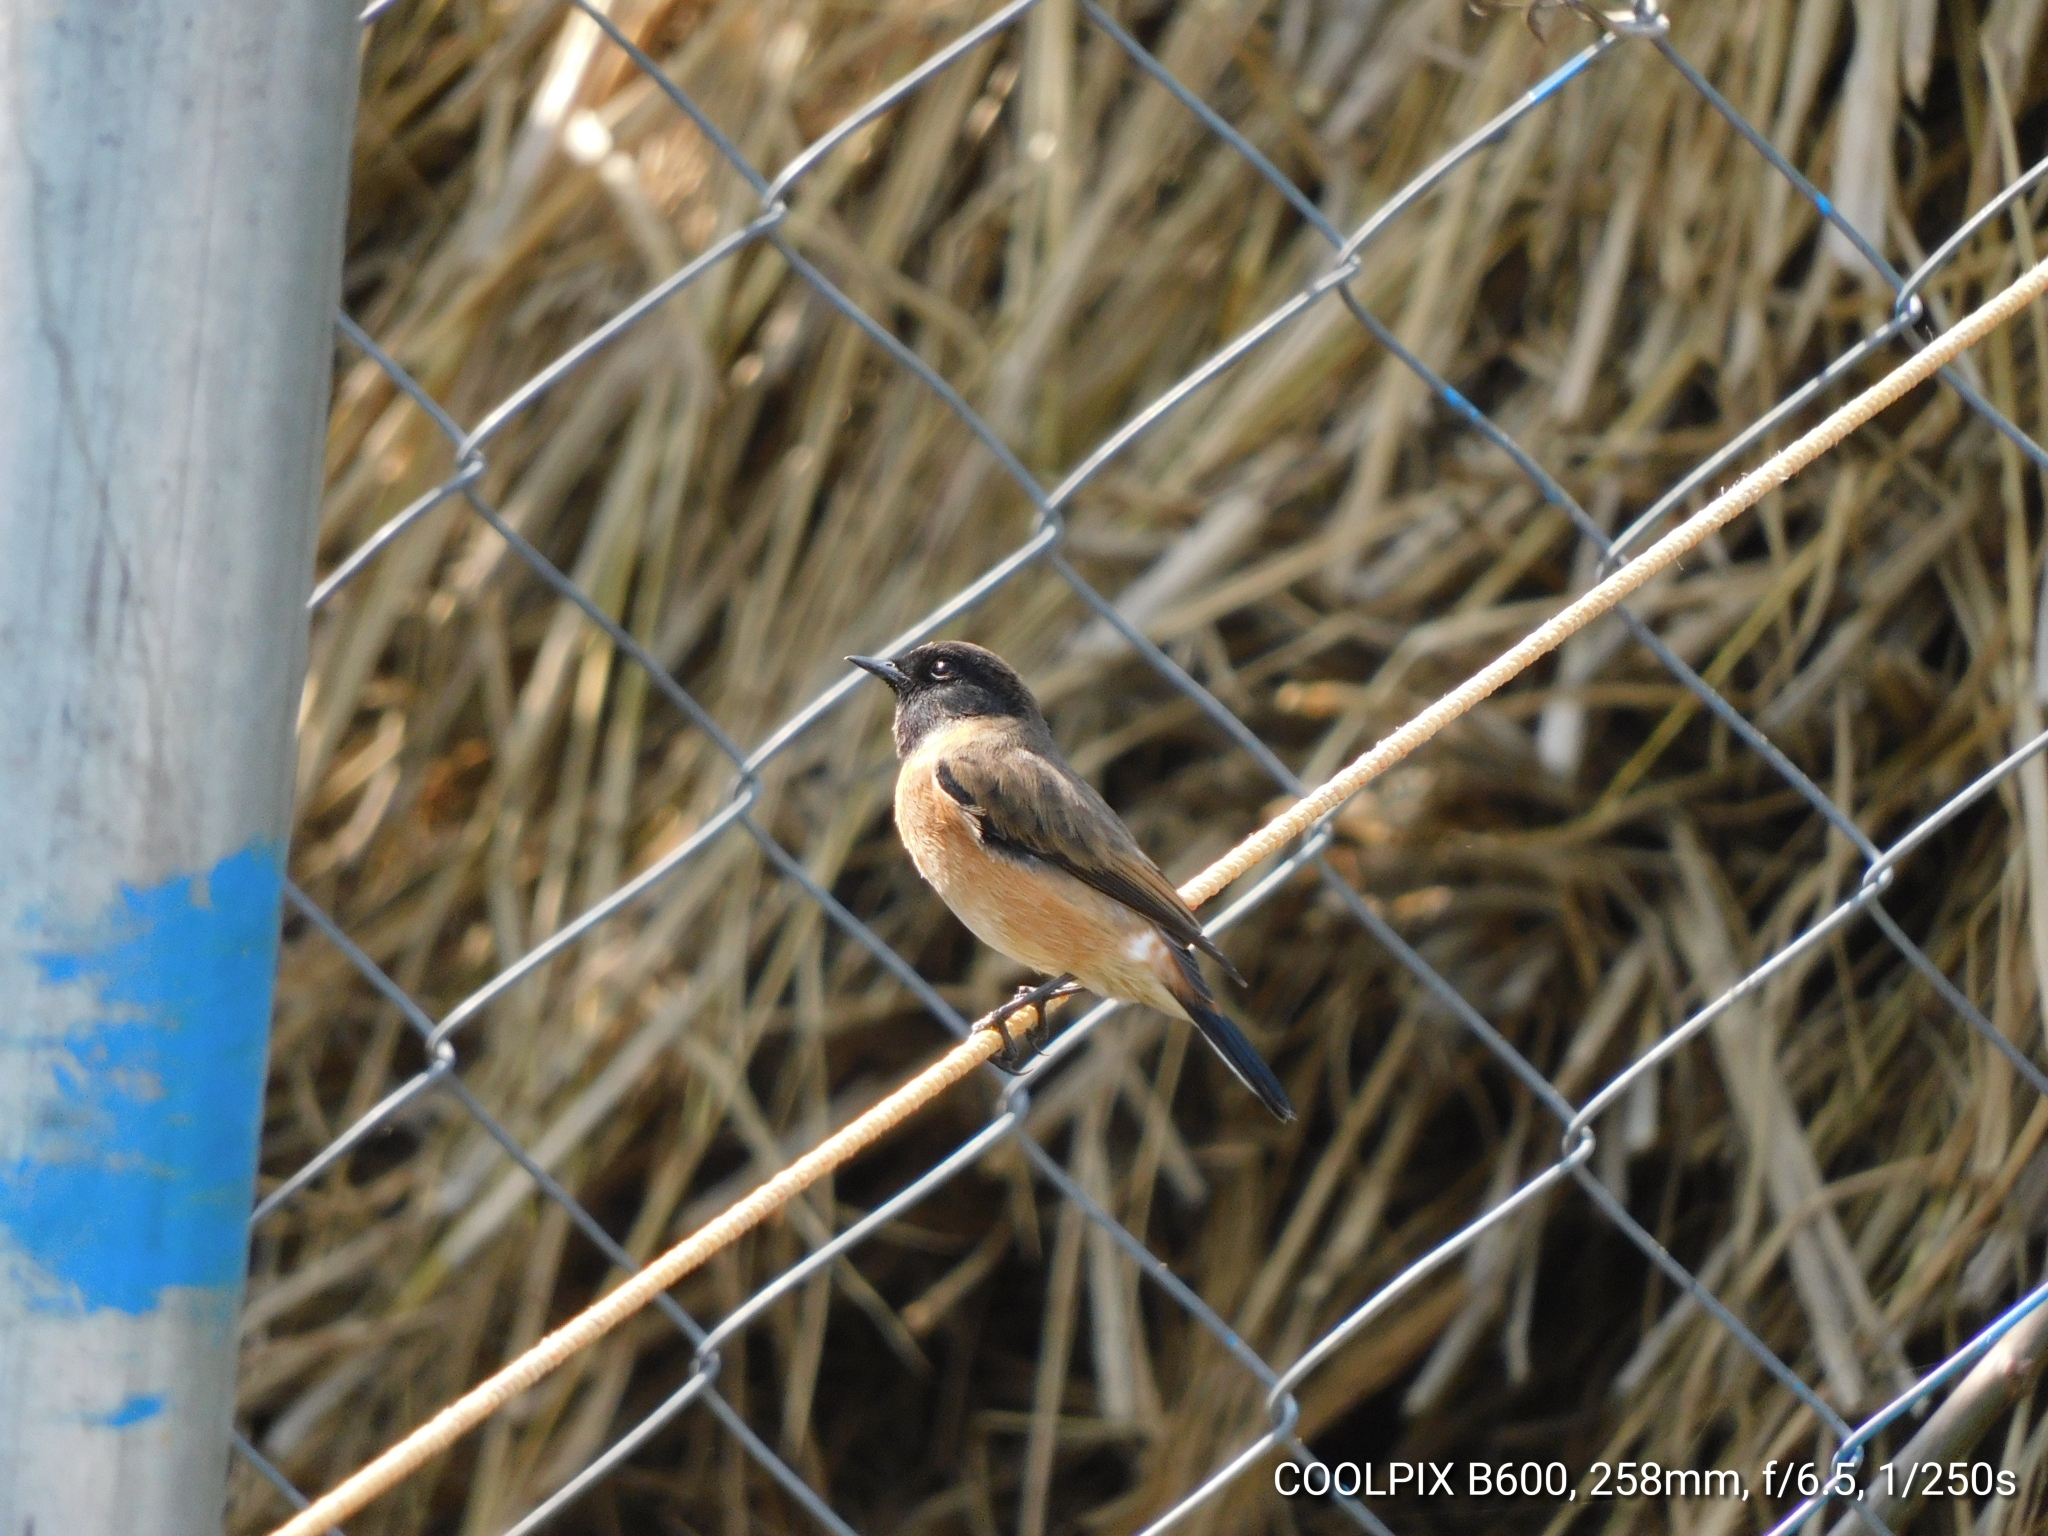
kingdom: Animalia
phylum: Chordata
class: Aves
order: Passeriformes
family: Muscicapidae
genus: Saxicola
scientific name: Saxicola maurus
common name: Siberian stonechat
